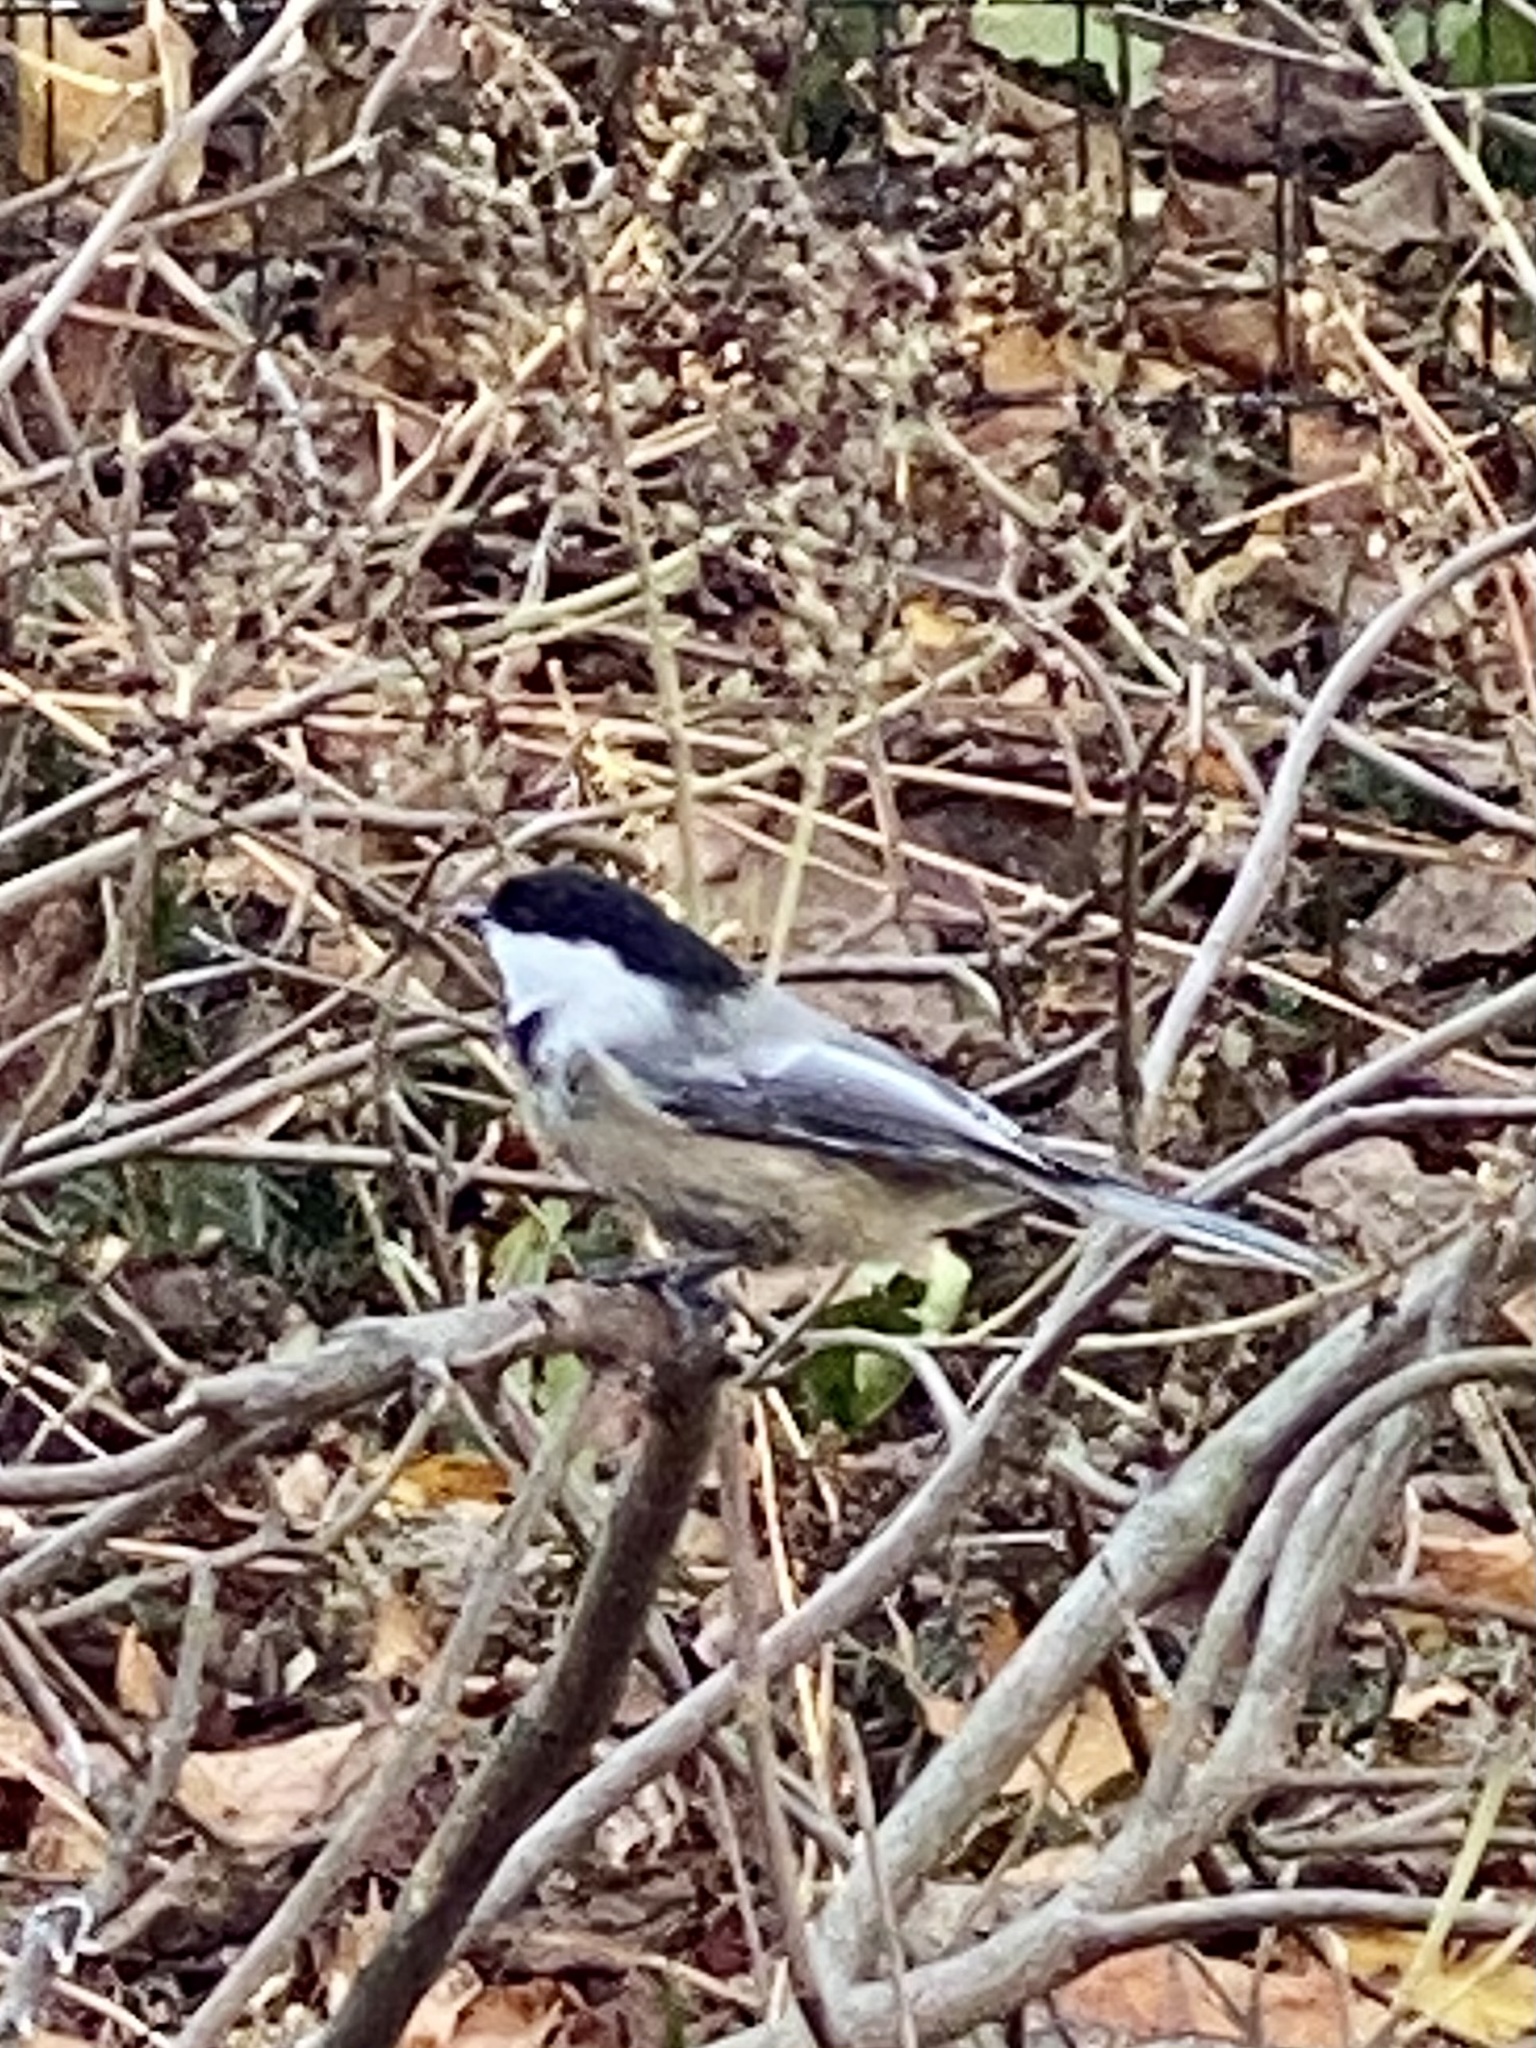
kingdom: Animalia
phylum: Chordata
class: Aves
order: Passeriformes
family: Paridae
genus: Poecile
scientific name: Poecile atricapillus
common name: Black-capped chickadee
